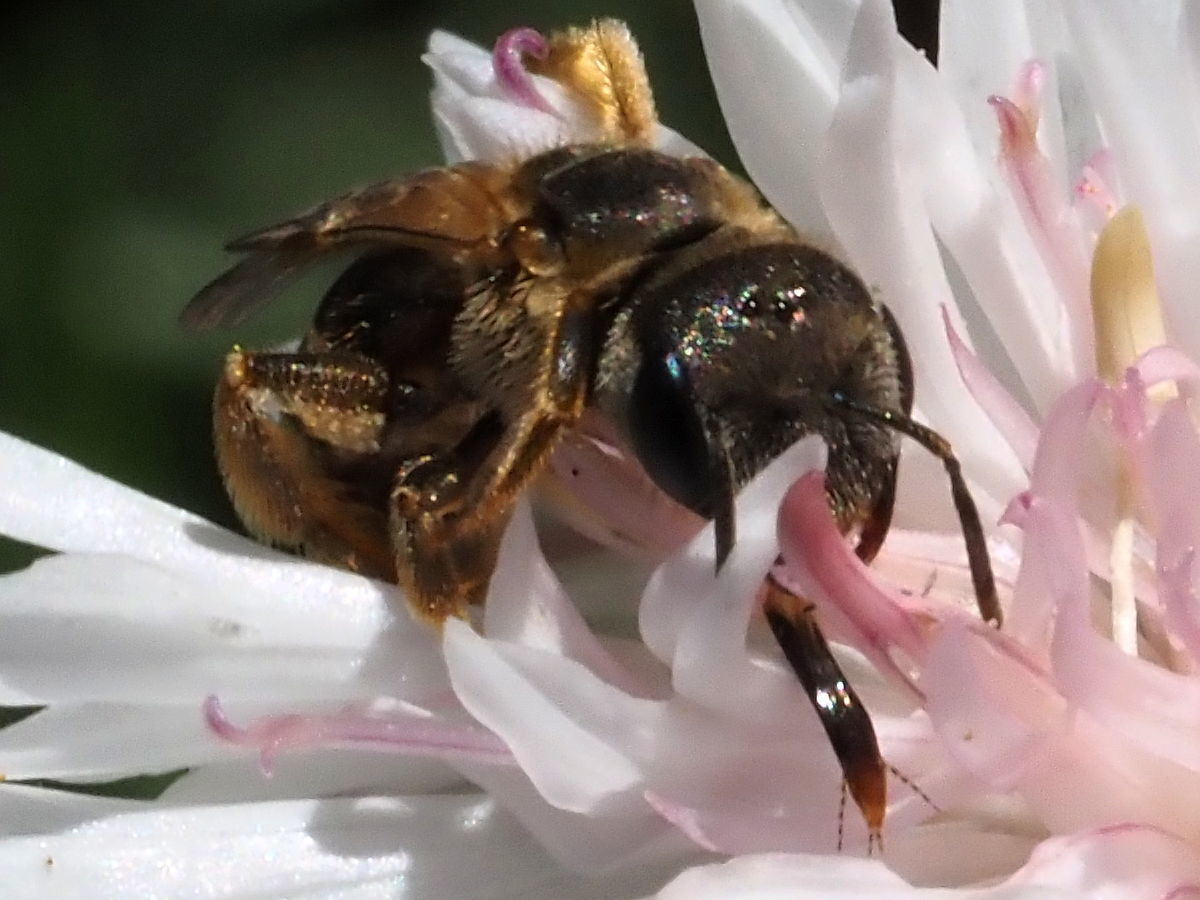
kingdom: Animalia
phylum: Arthropoda
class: Insecta
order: Hymenoptera
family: Halictidae
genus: Halictus
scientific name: Halictus ligatus
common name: Ligated furrow bee
